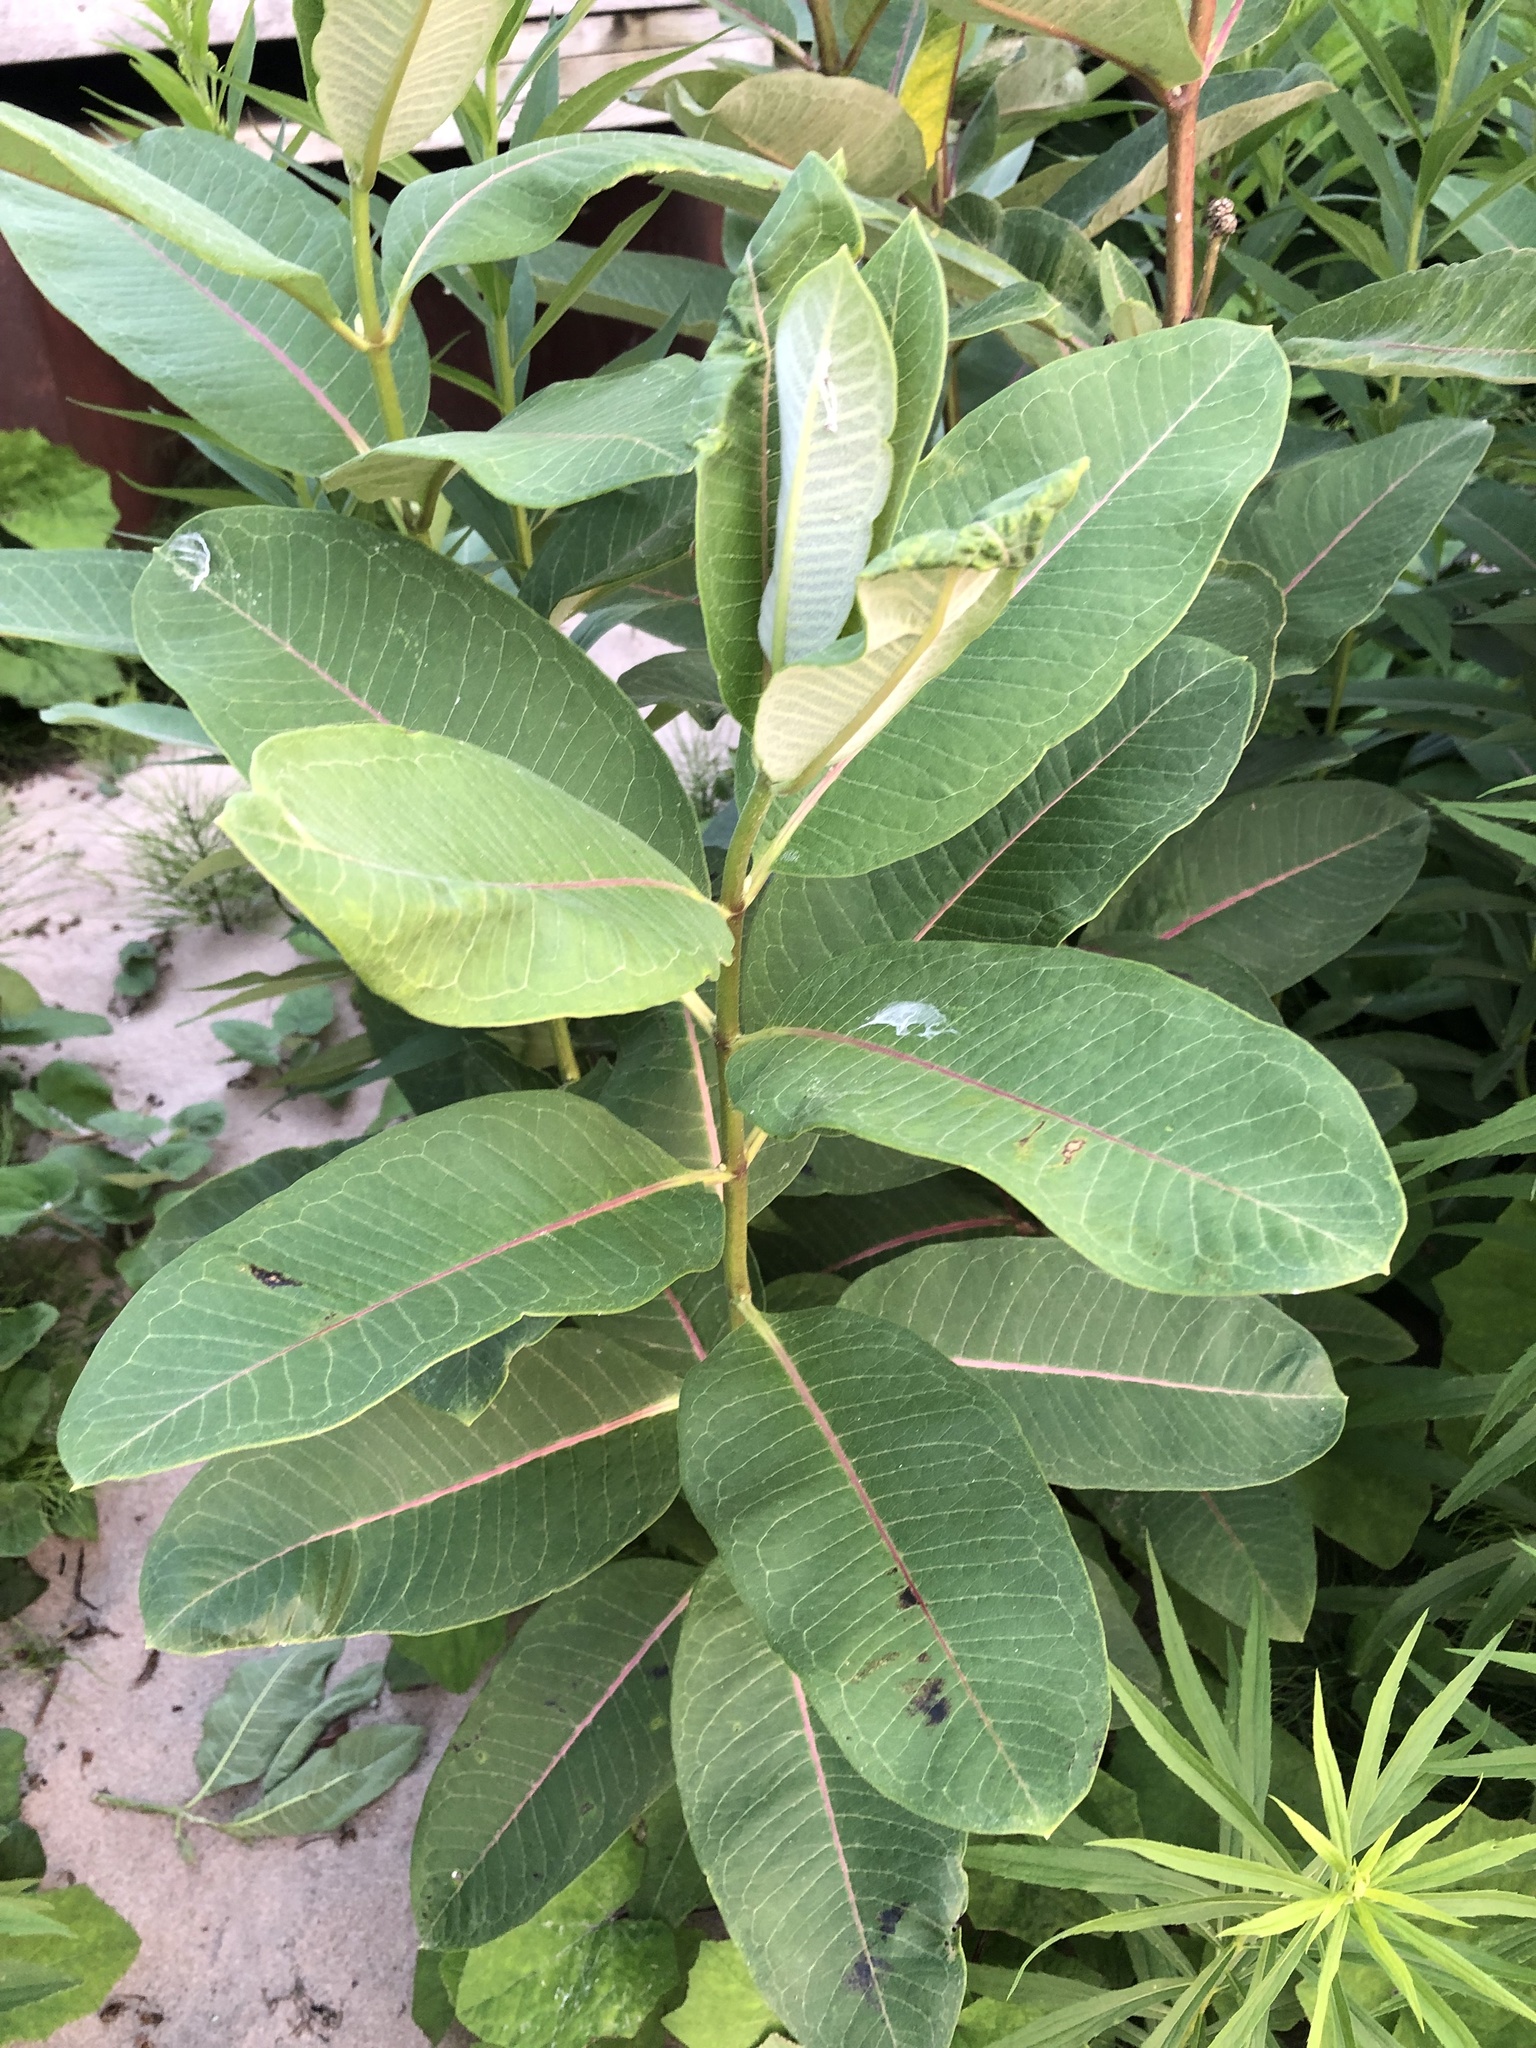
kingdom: Plantae
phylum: Tracheophyta
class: Magnoliopsida
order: Gentianales
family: Apocynaceae
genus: Asclepias
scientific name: Asclepias syriaca
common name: Common milkweed
